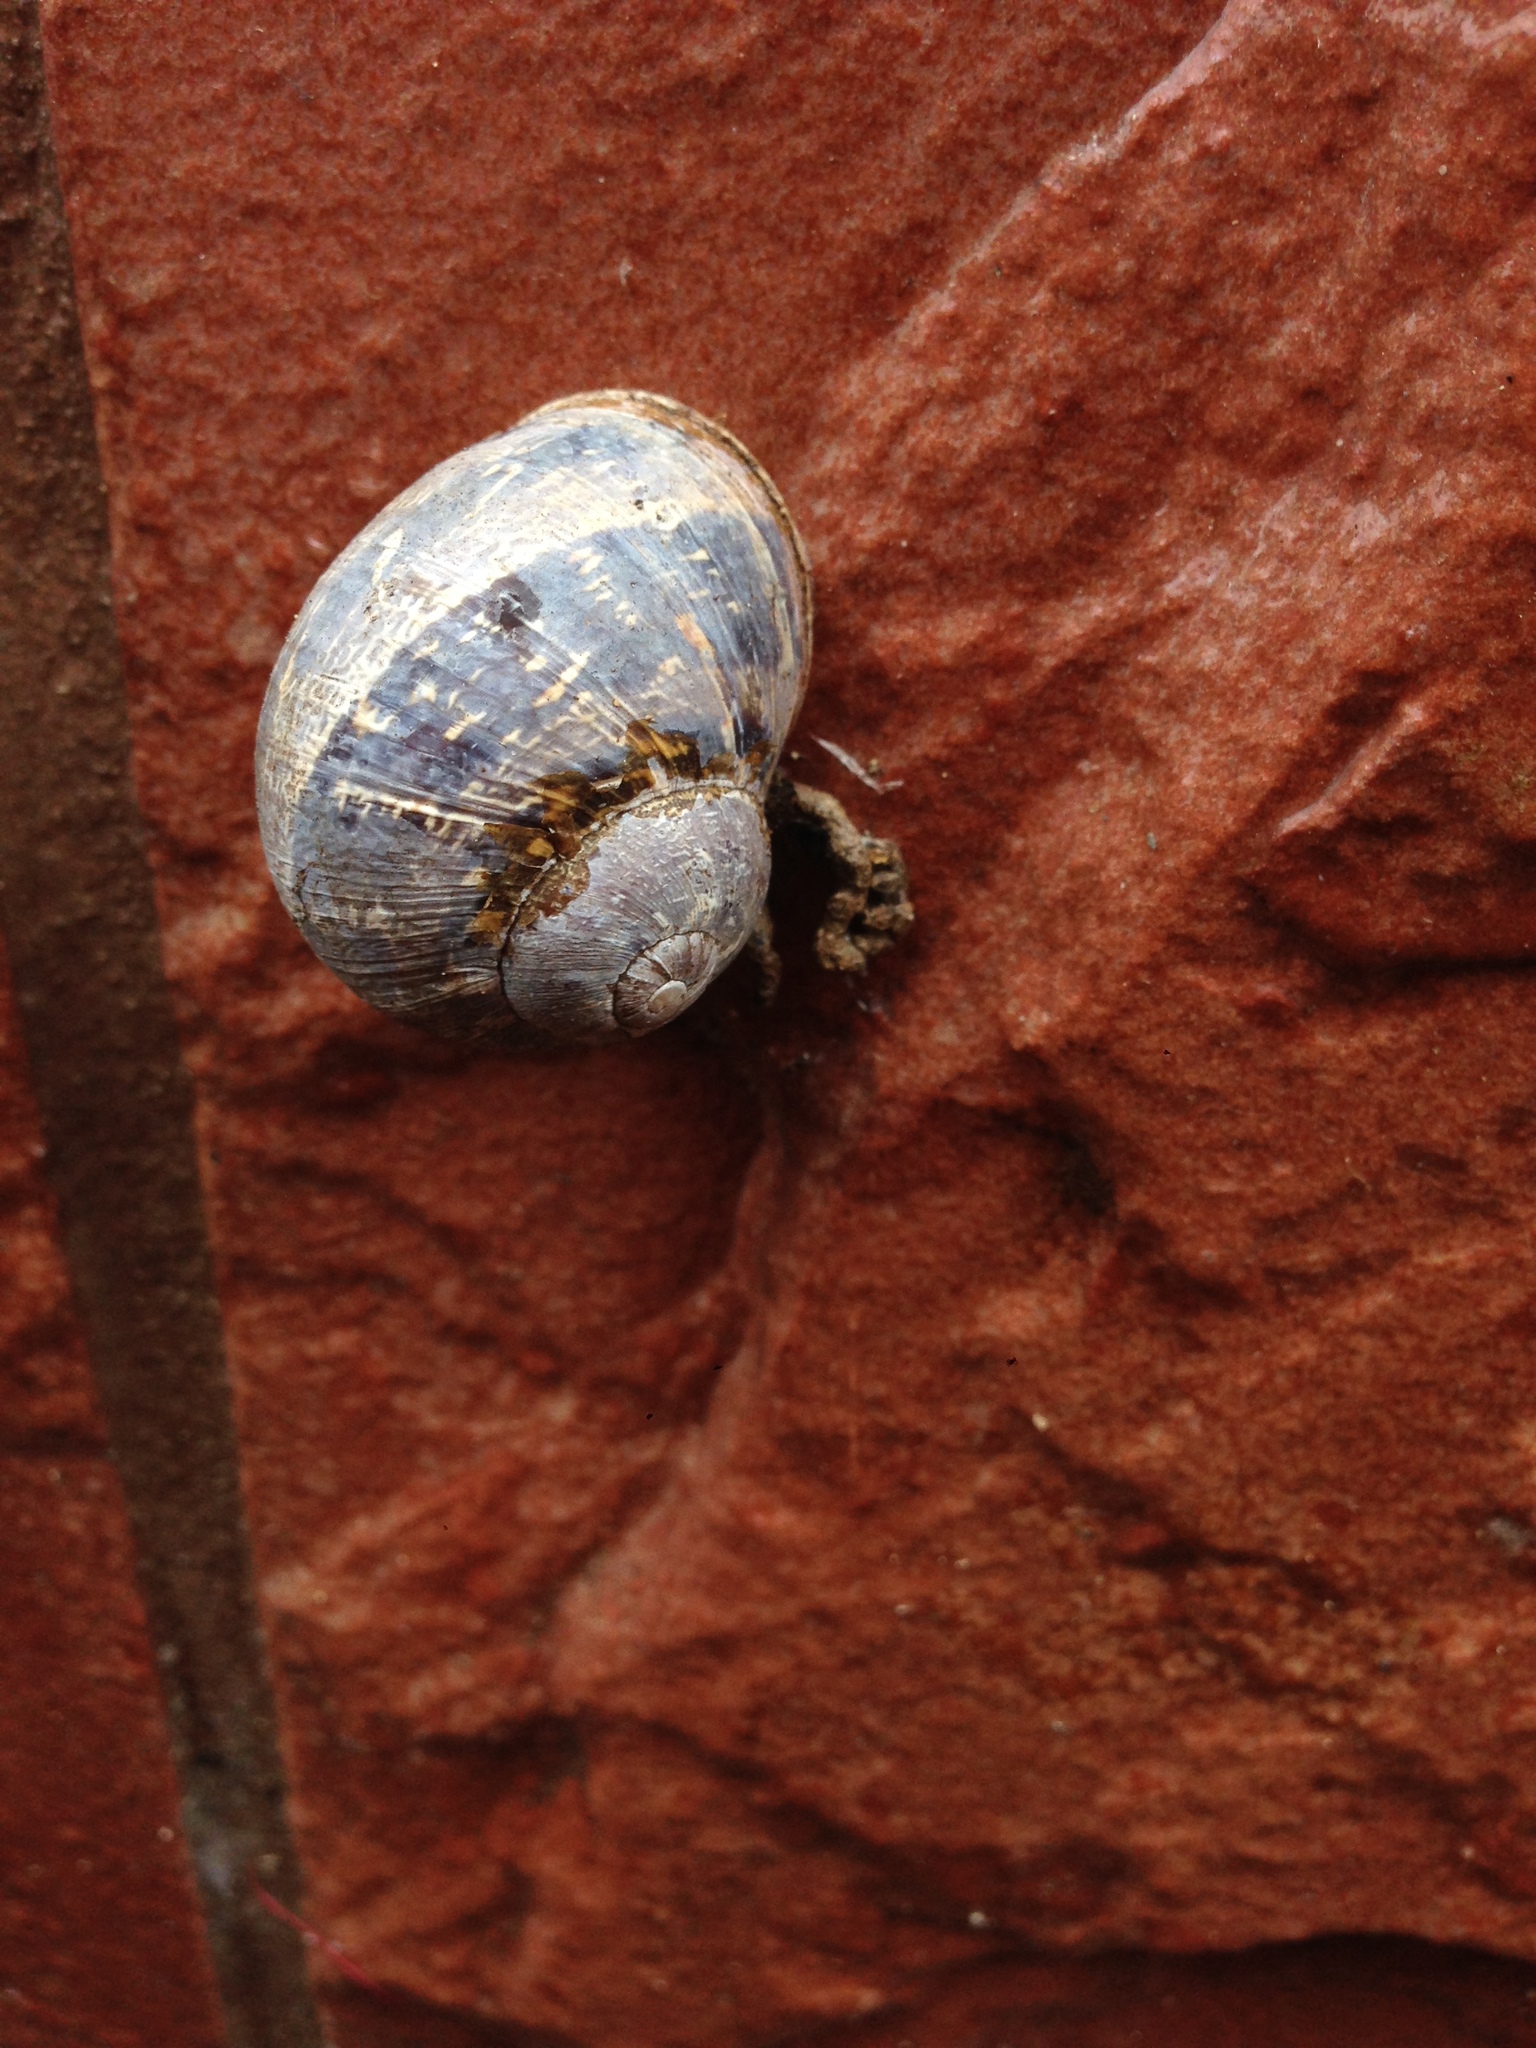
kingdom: Animalia
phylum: Mollusca
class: Gastropoda
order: Stylommatophora
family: Helicidae
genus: Cornu
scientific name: Cornu aspersum
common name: Brown garden snail
